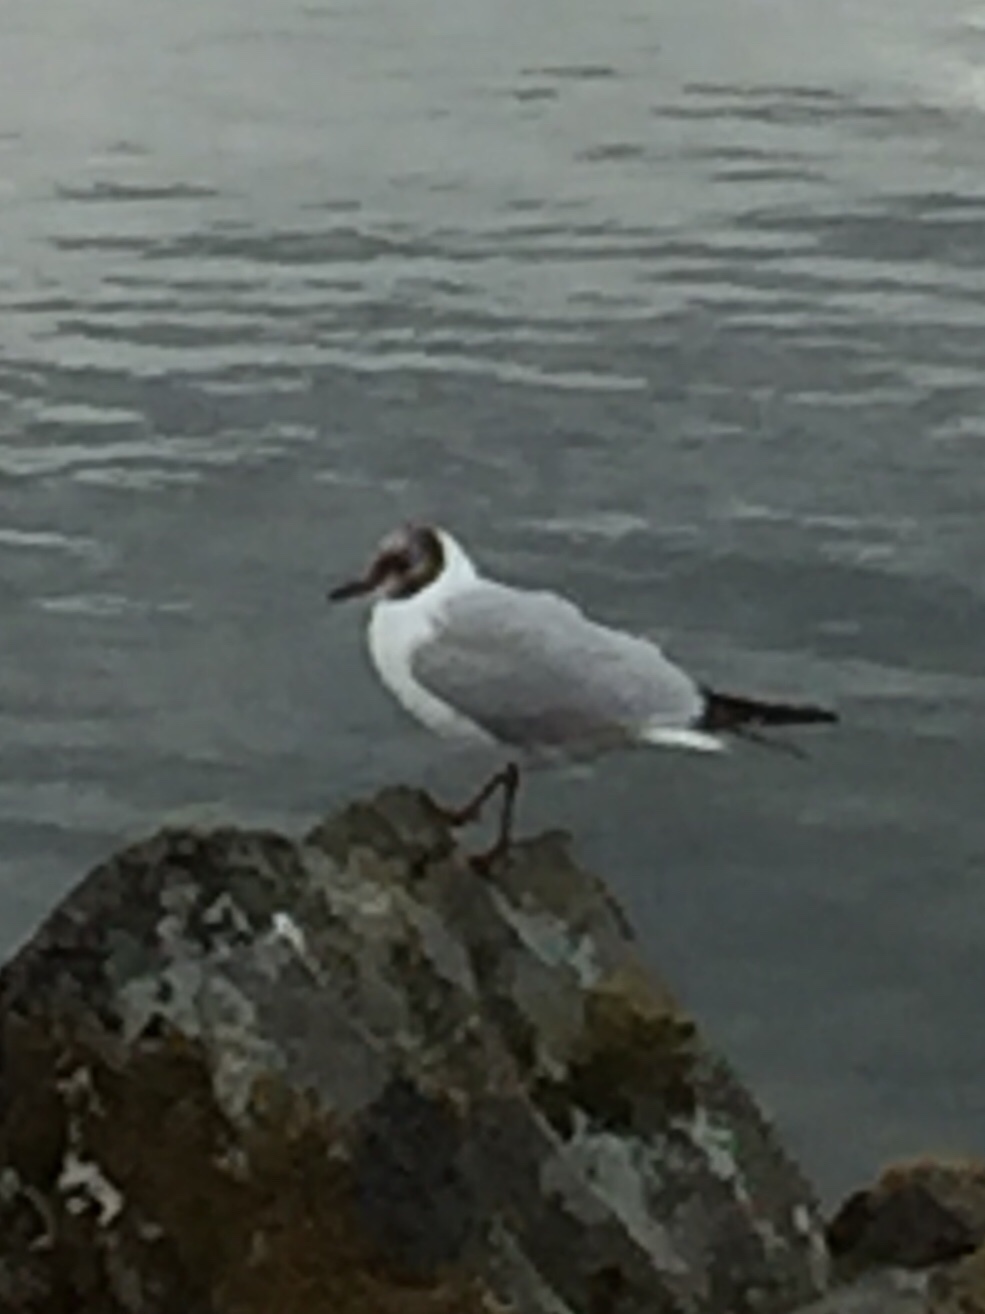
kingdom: Animalia
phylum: Chordata
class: Aves
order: Charadriiformes
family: Laridae
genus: Chroicocephalus
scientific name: Chroicocephalus ridibundus
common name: Black-headed gull
